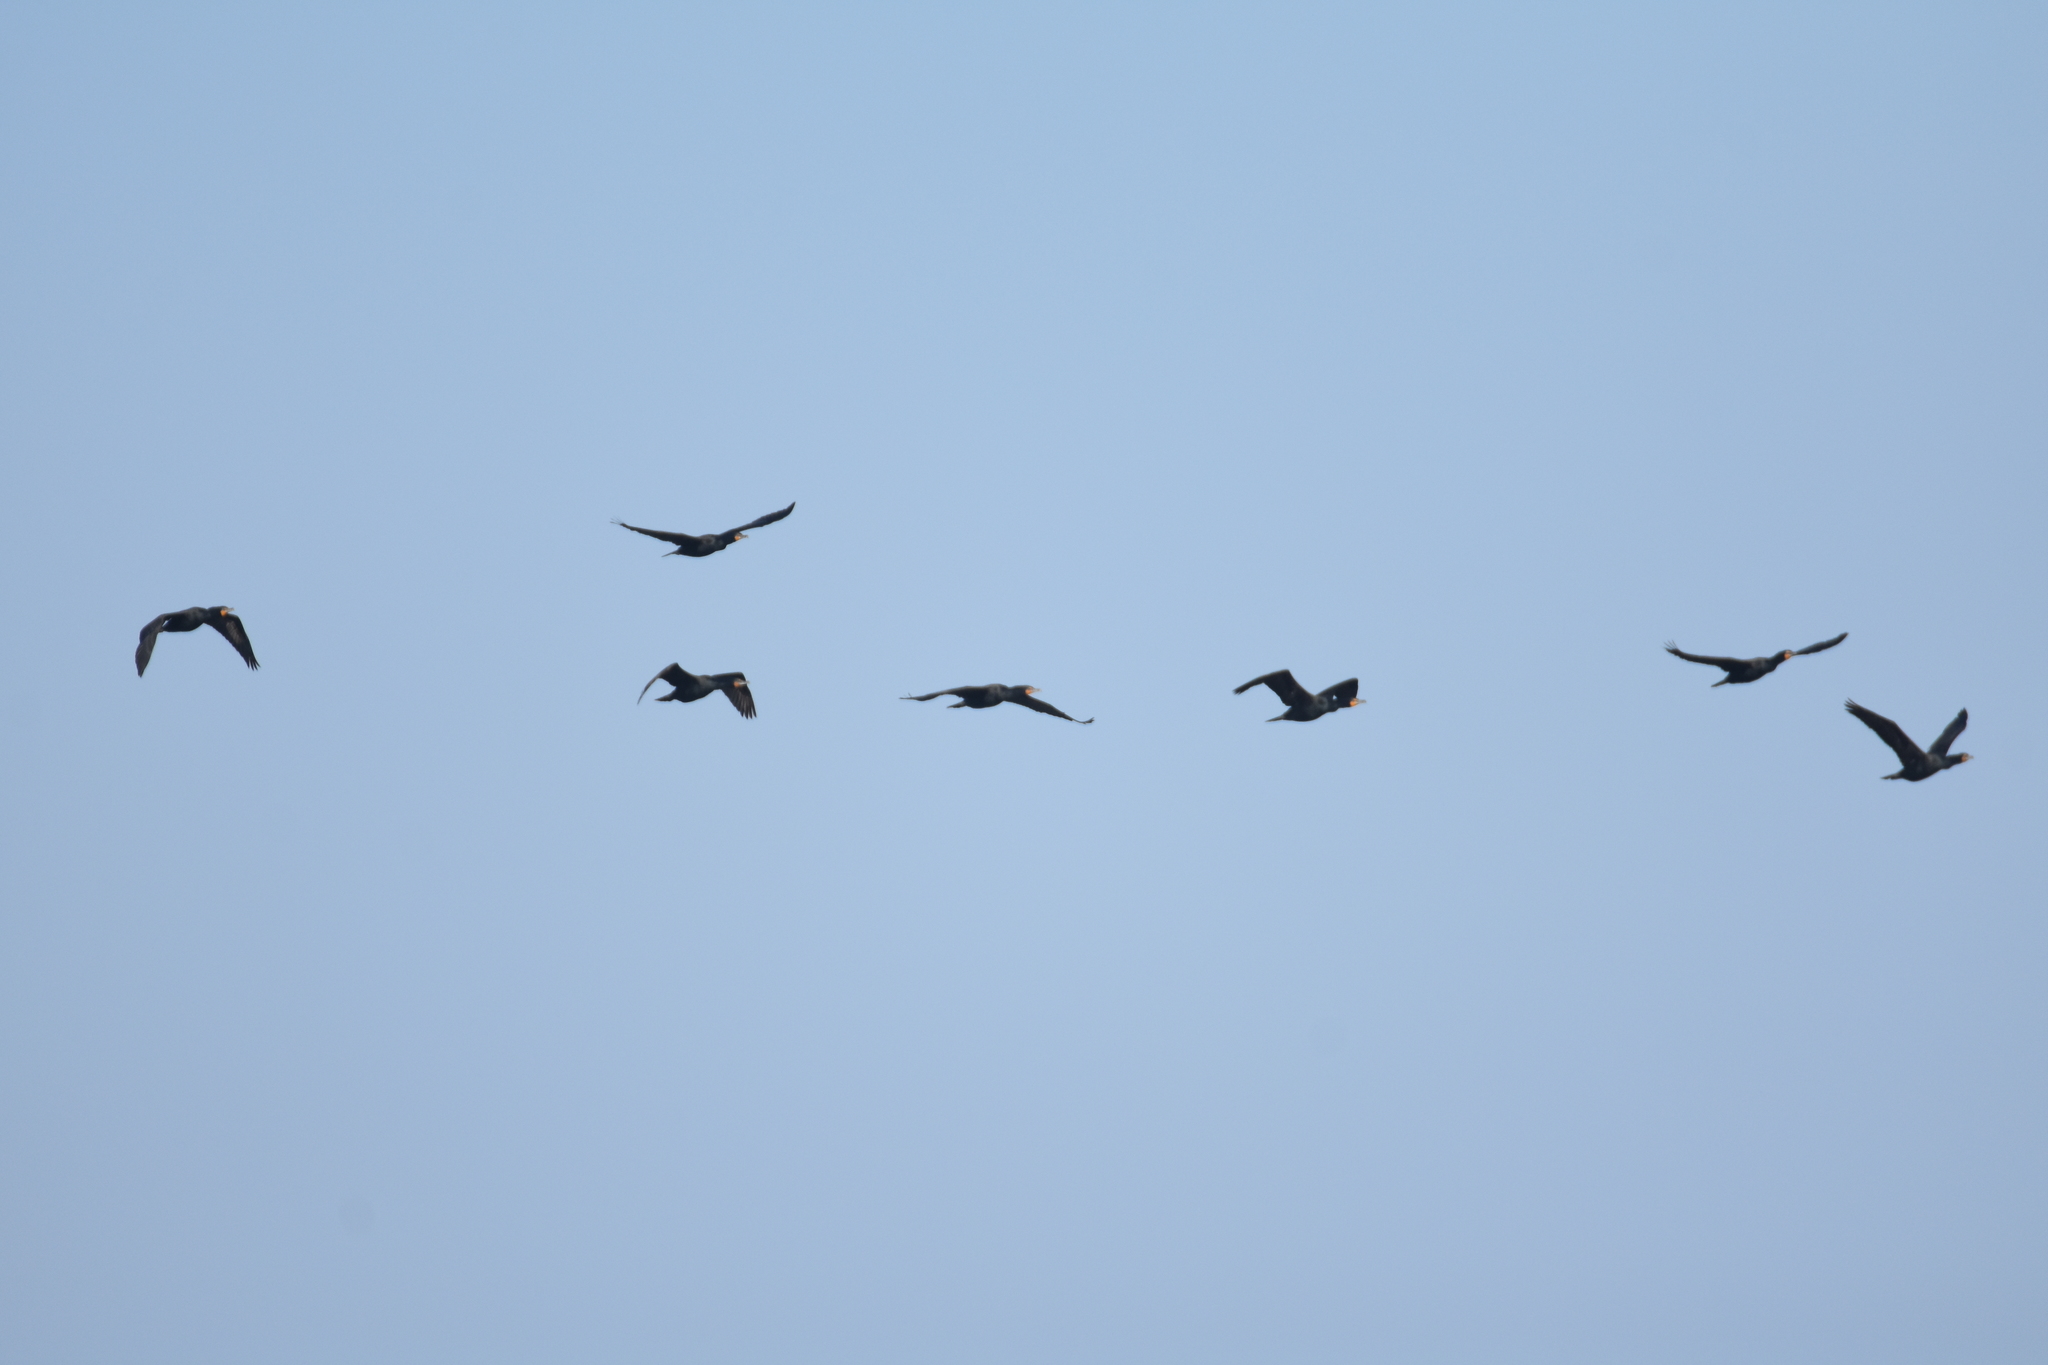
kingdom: Animalia
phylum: Chordata
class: Aves
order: Suliformes
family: Phalacrocoracidae
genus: Phalacrocorax
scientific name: Phalacrocorax auritus
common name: Double-crested cormorant
